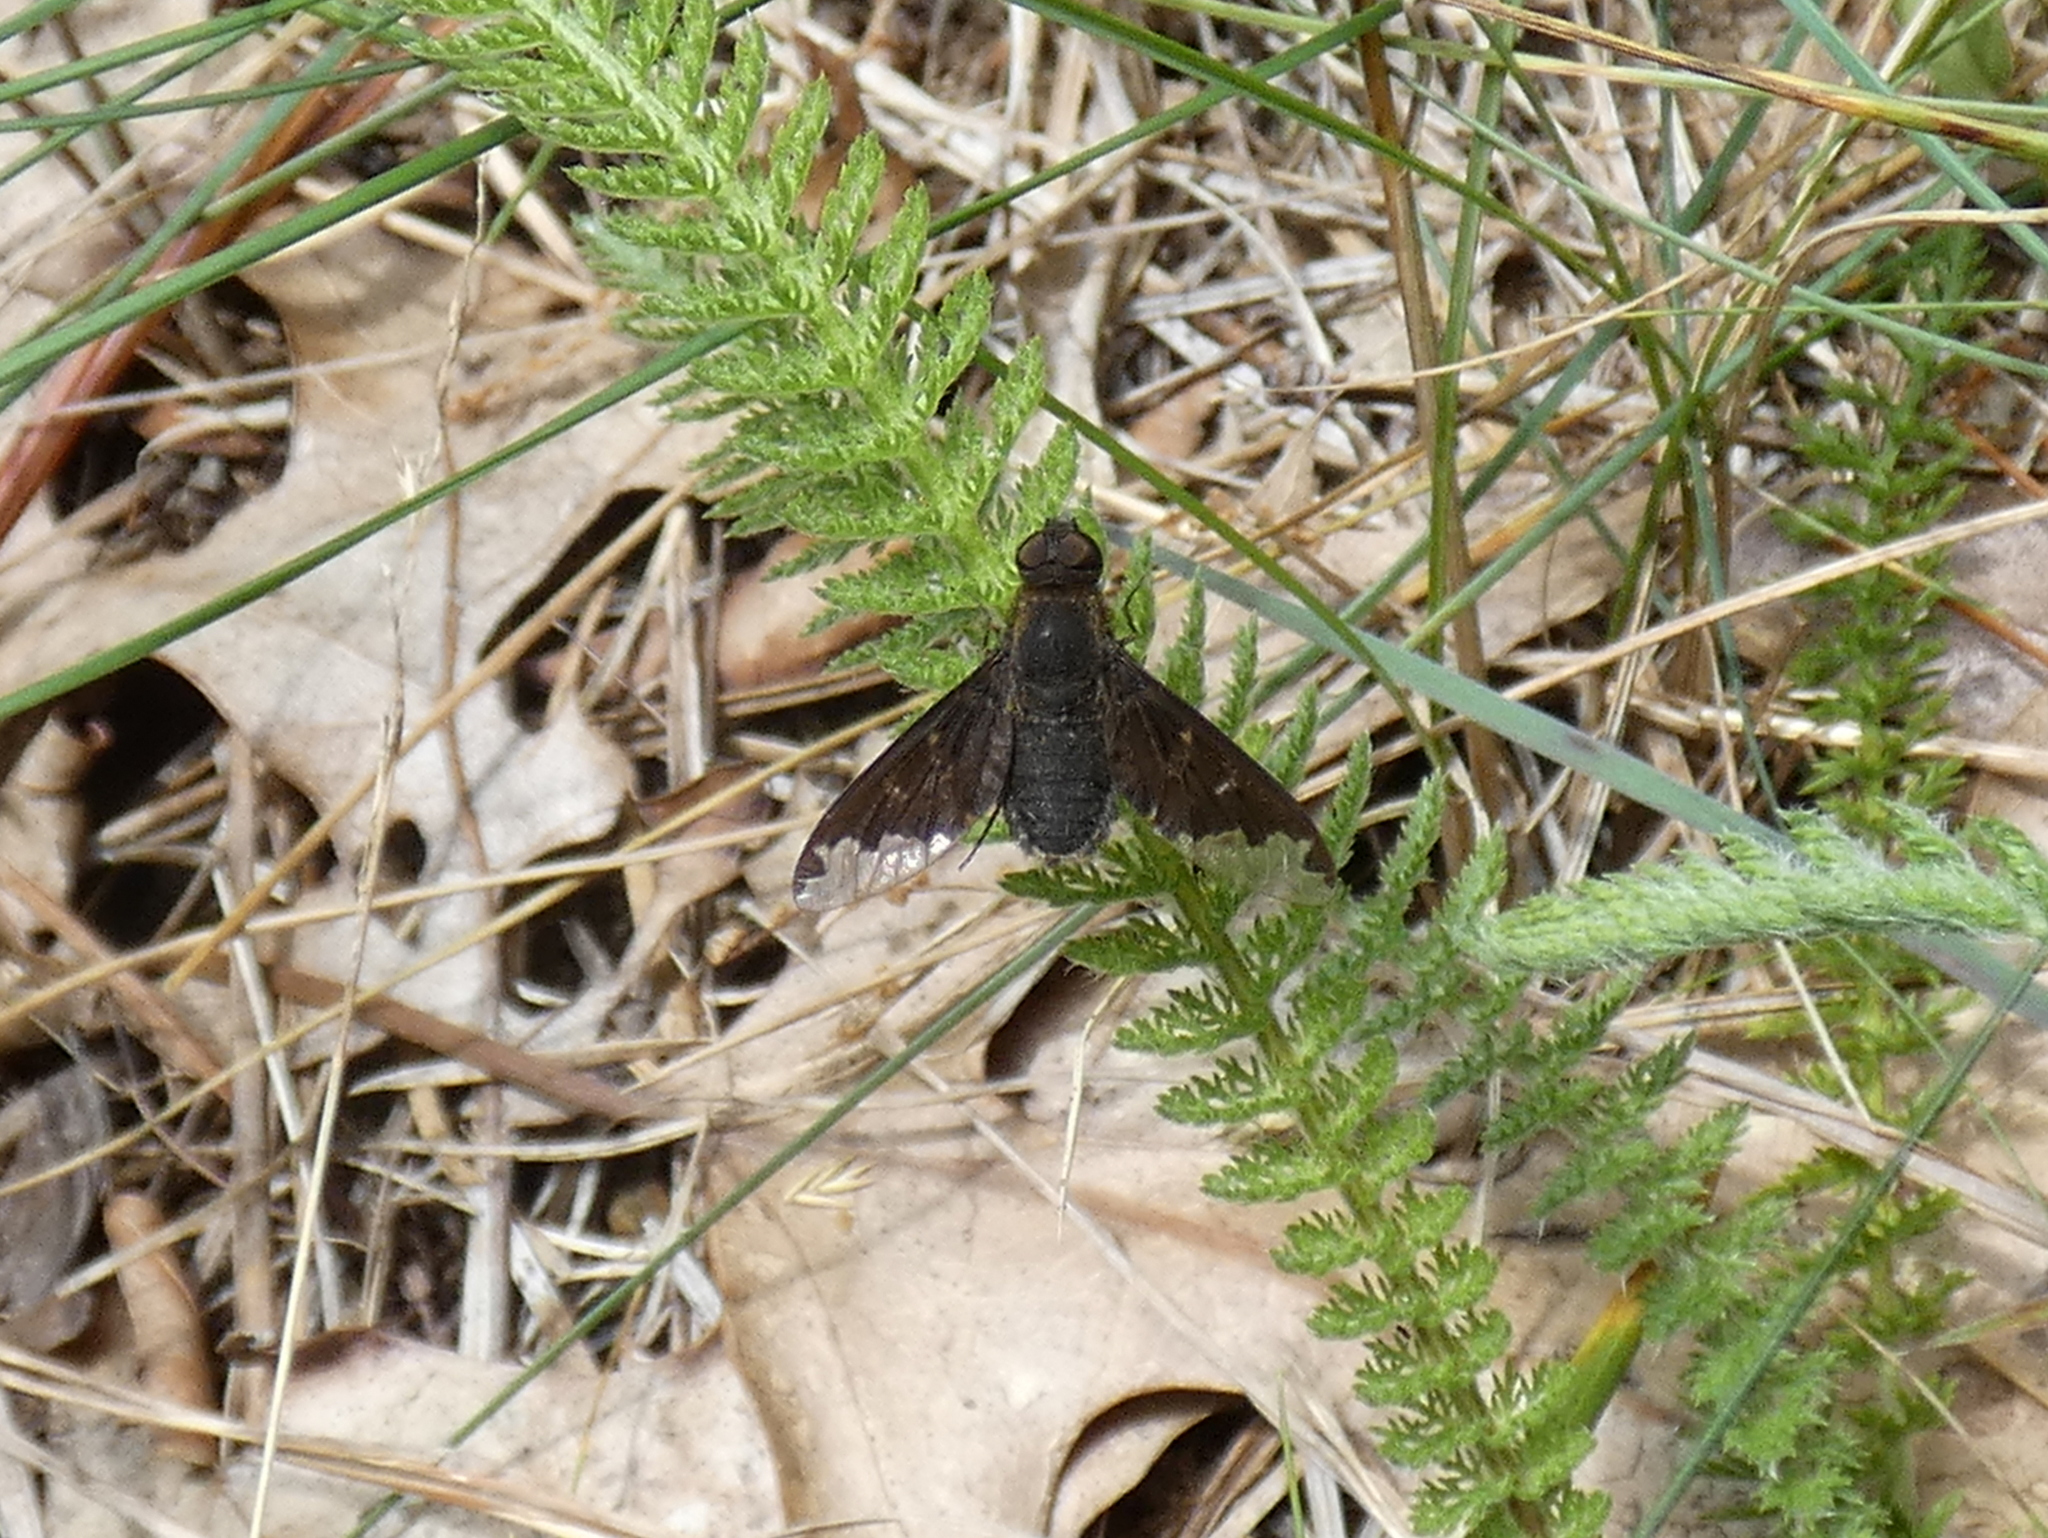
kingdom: Animalia
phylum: Arthropoda
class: Insecta
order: Diptera
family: Bombyliidae
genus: Hemipenthes
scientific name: Hemipenthes sinuosus
